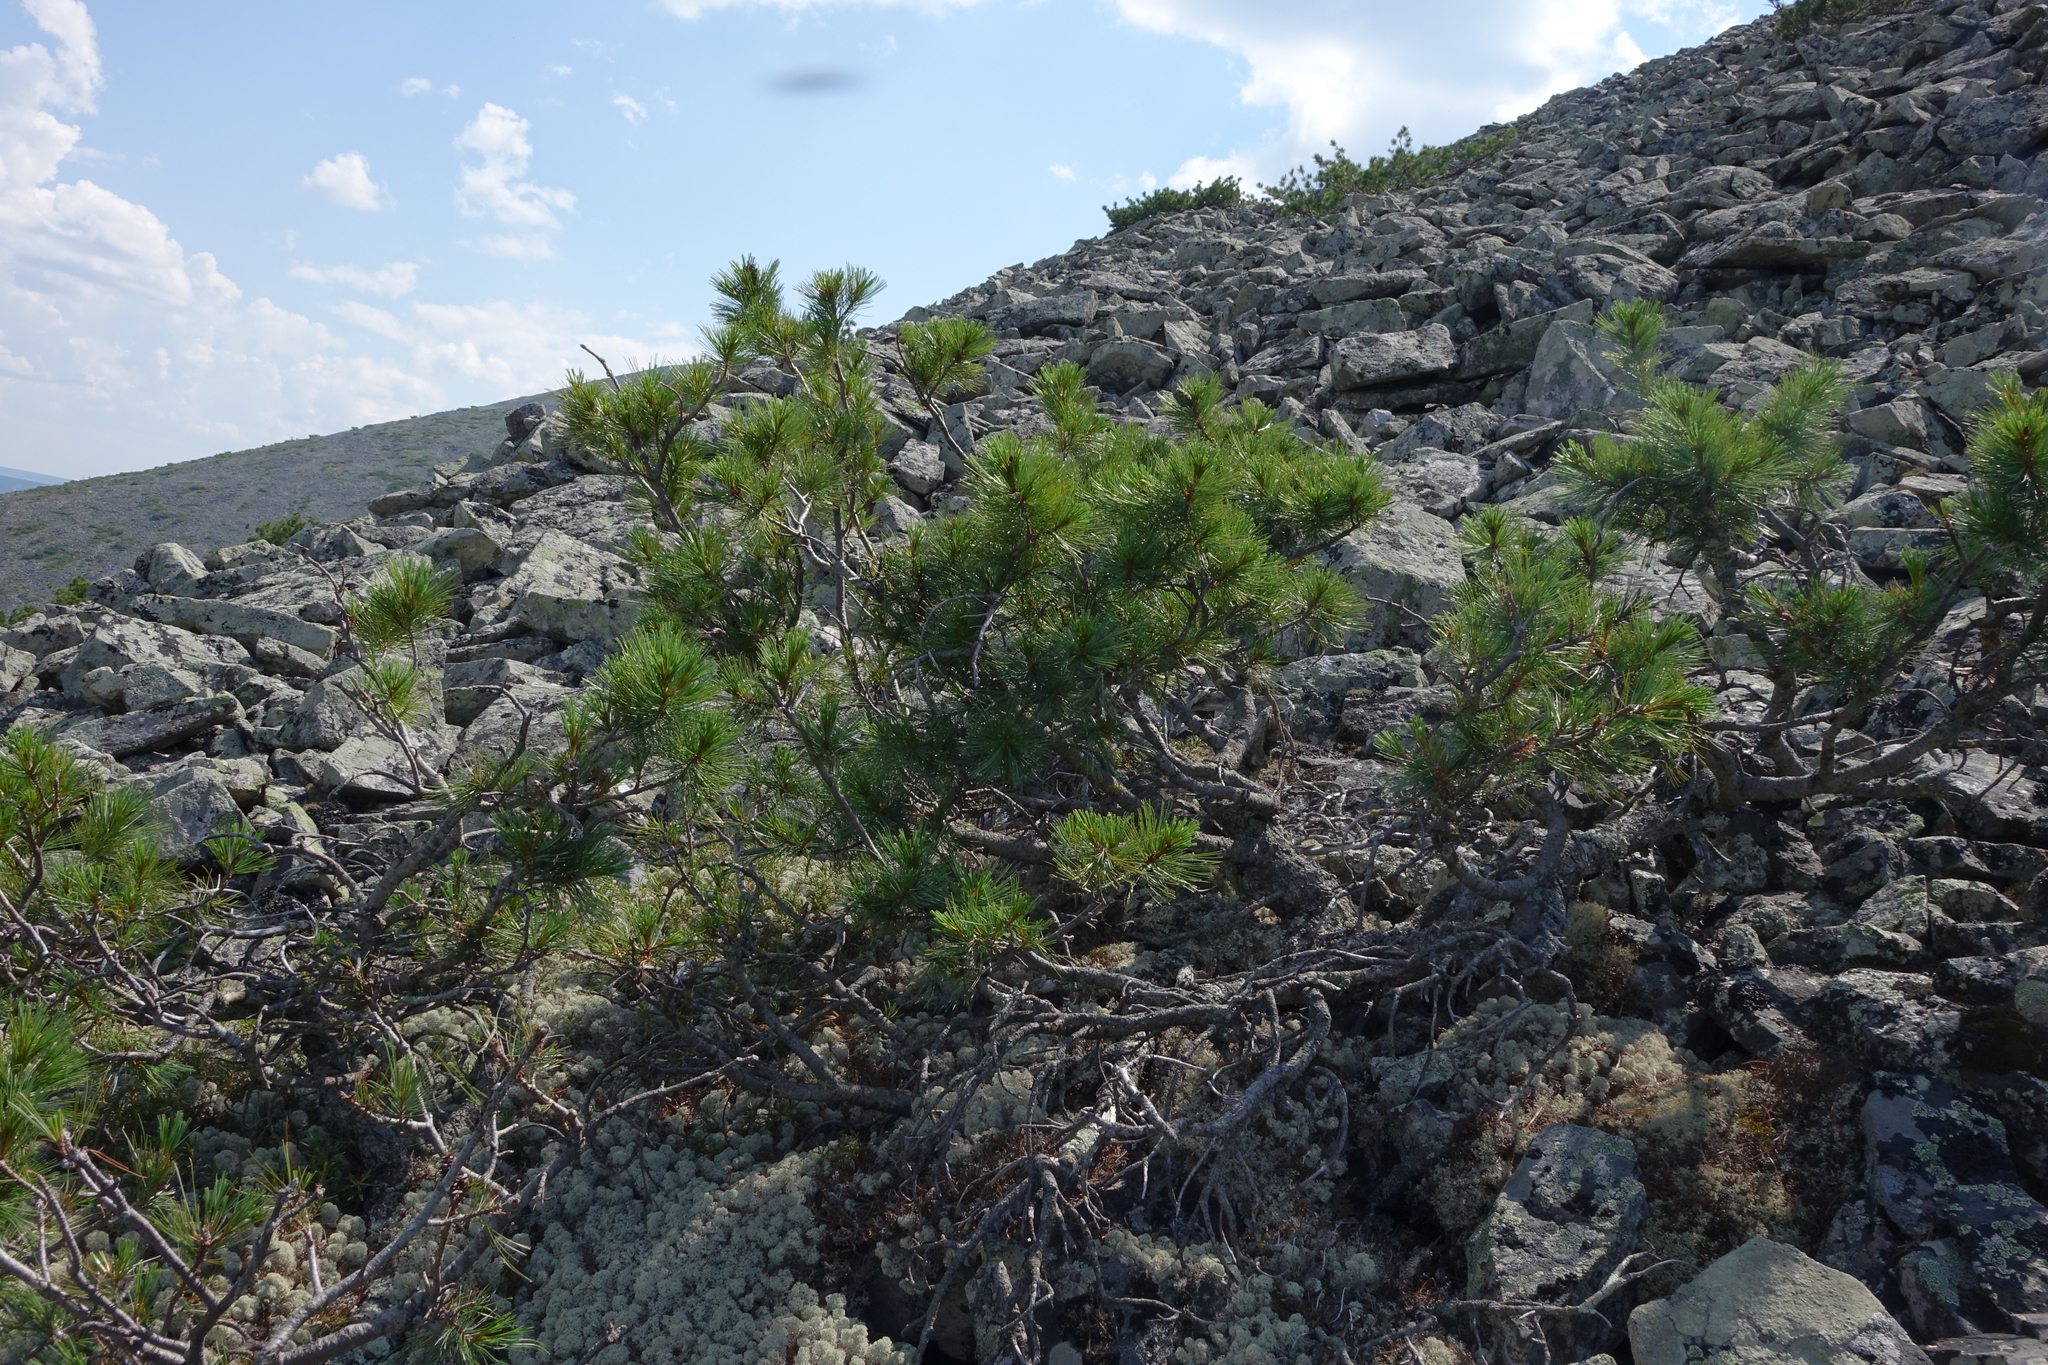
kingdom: Plantae
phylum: Tracheophyta
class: Pinopsida
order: Pinales
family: Pinaceae
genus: Pinus
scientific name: Pinus pumila
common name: Dwarf siberian pine
